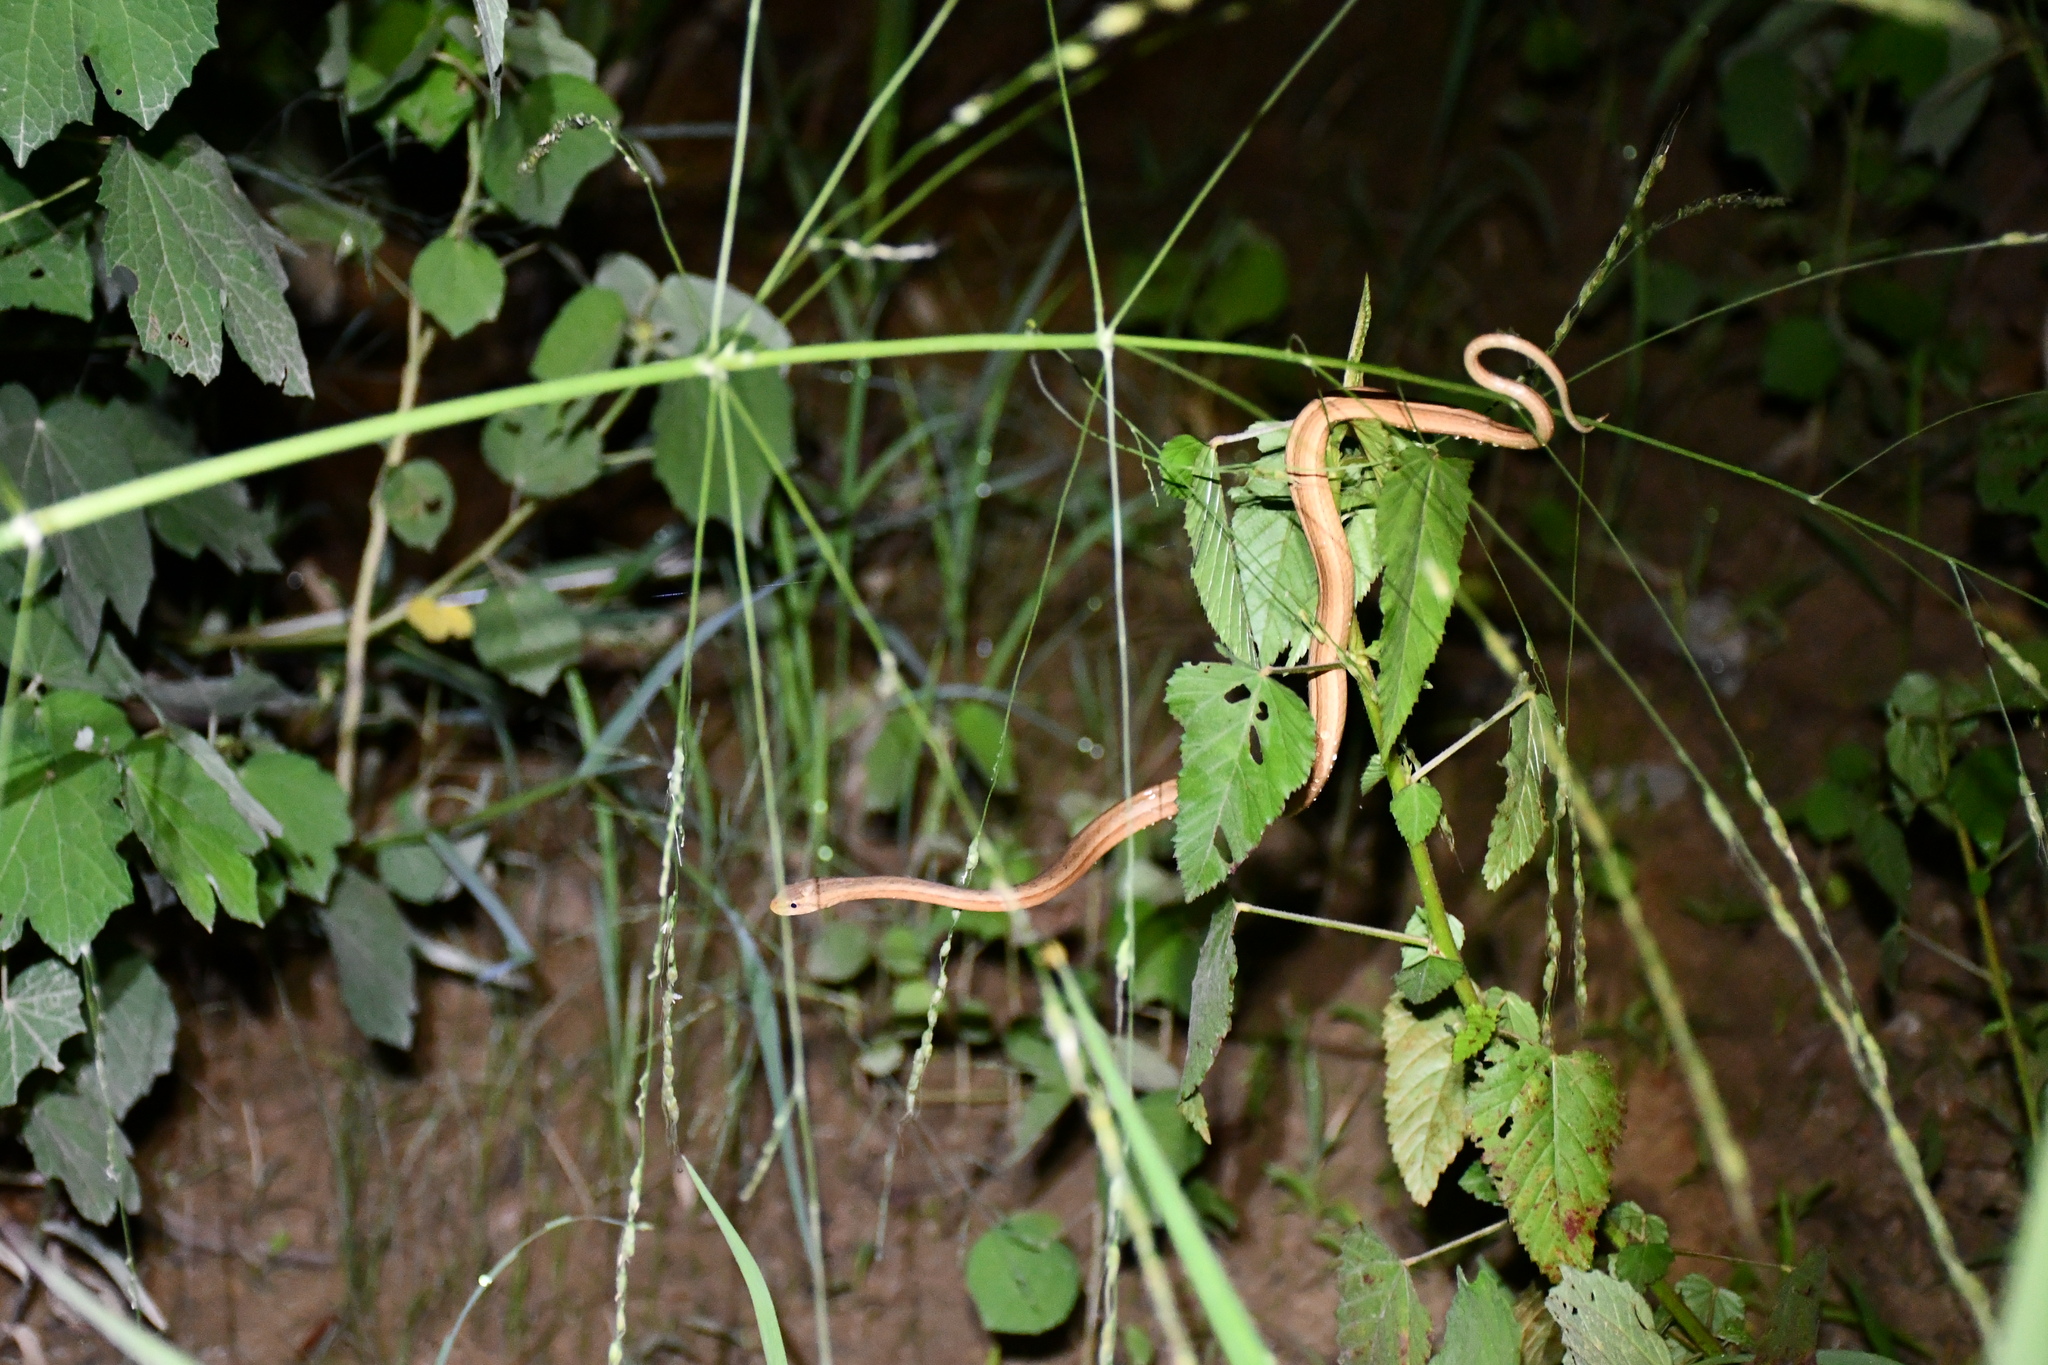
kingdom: Animalia
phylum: Chordata
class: Squamata
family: Colubridae
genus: Thamnodynastes
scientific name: Thamnodynastes pallidus
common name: Amazon coastal house snake
